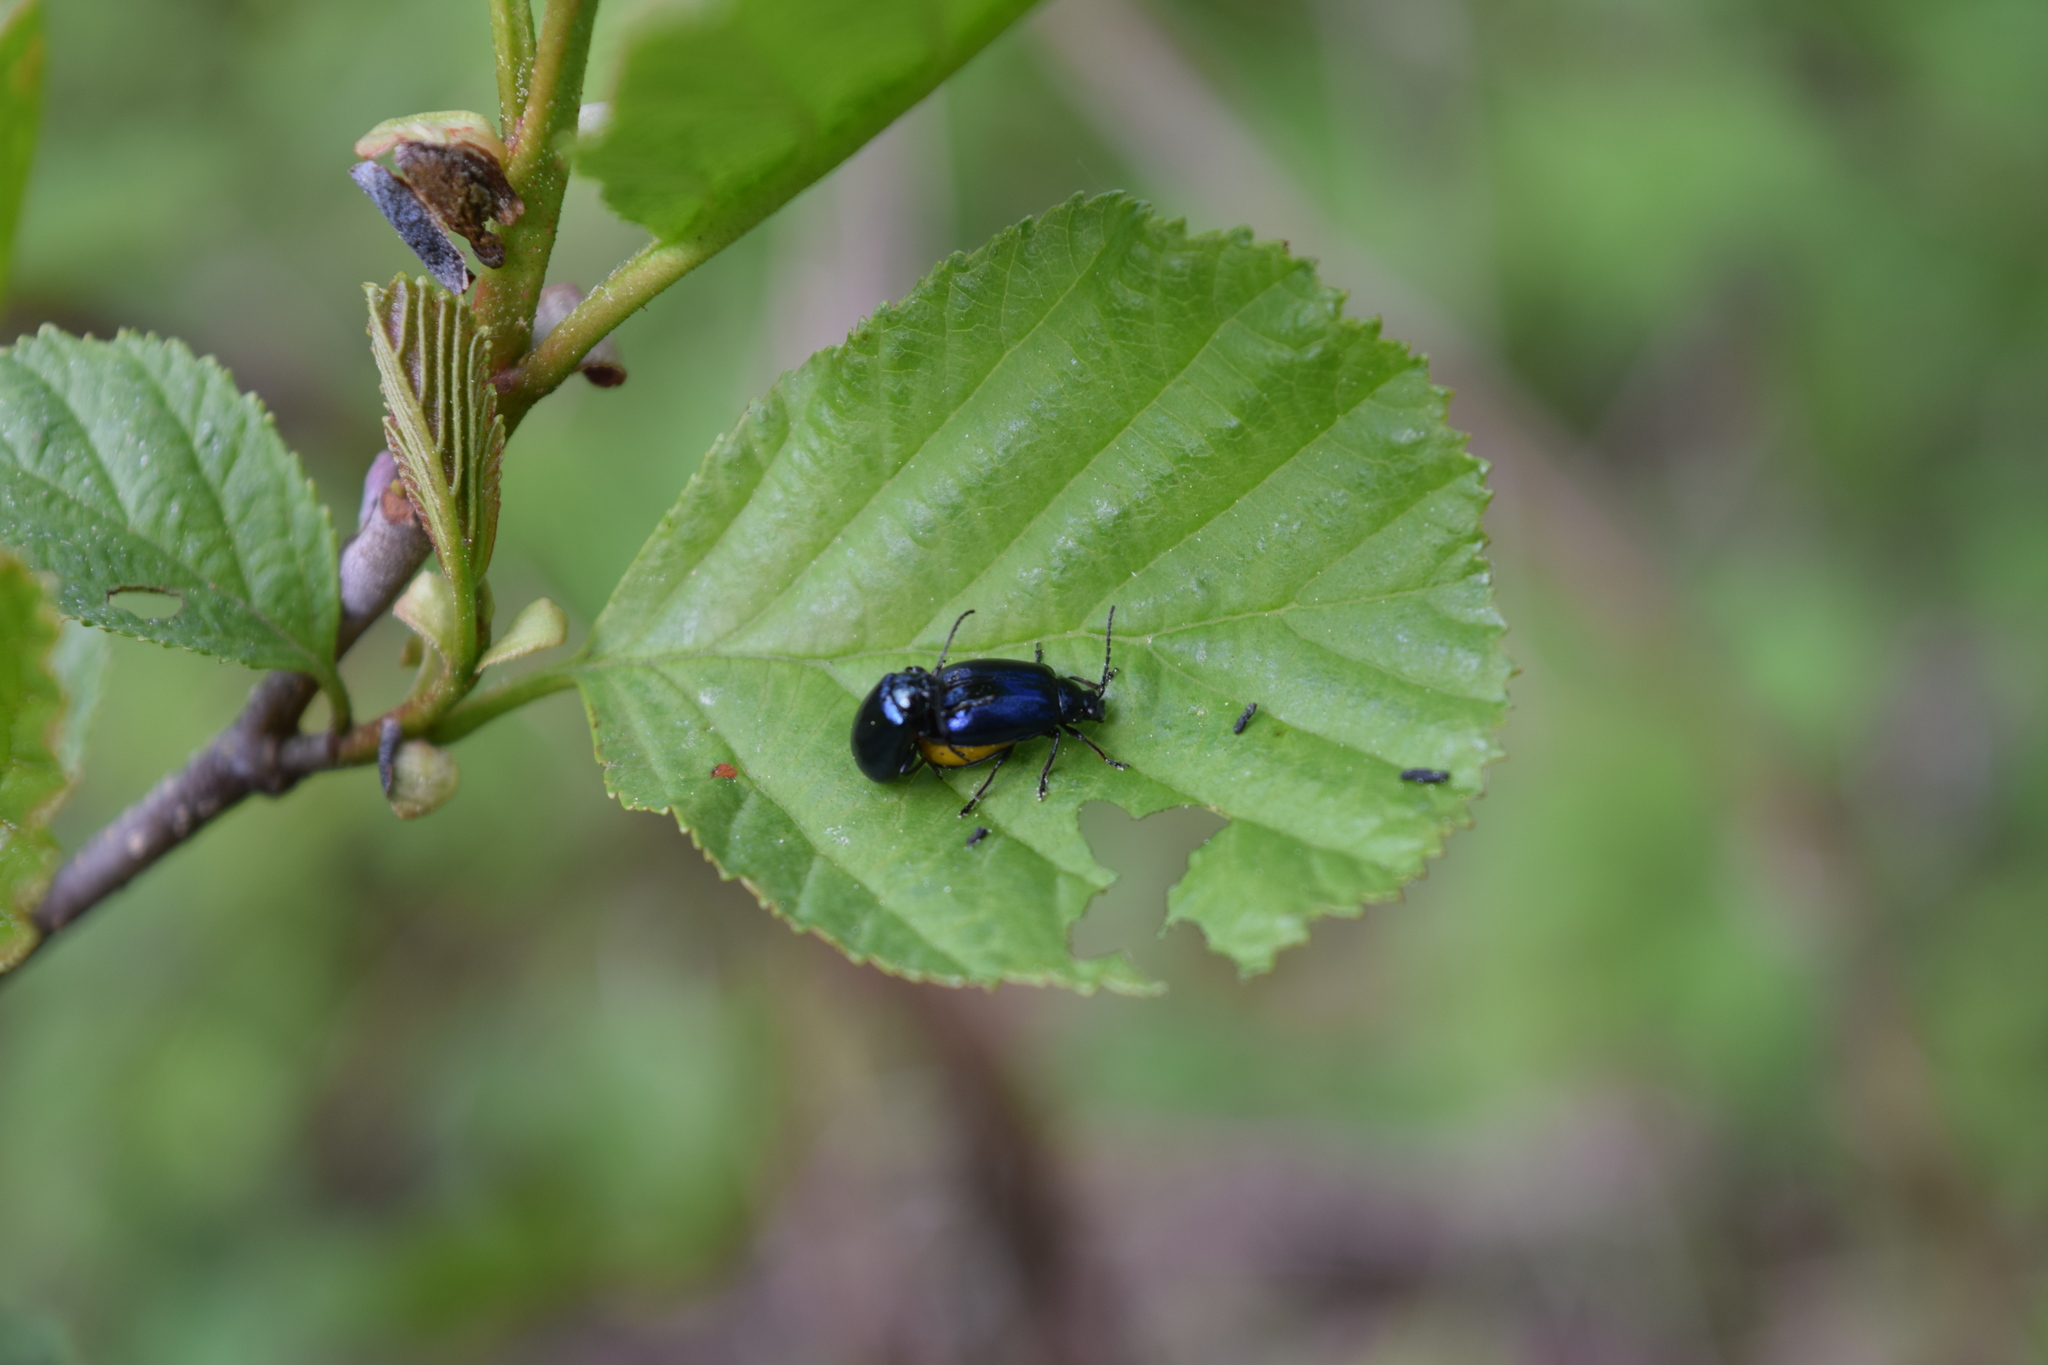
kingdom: Animalia
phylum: Arthropoda
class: Insecta
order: Coleoptera
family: Chrysomelidae
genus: Agelastica
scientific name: Agelastica alni
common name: Alder leaf beetle
